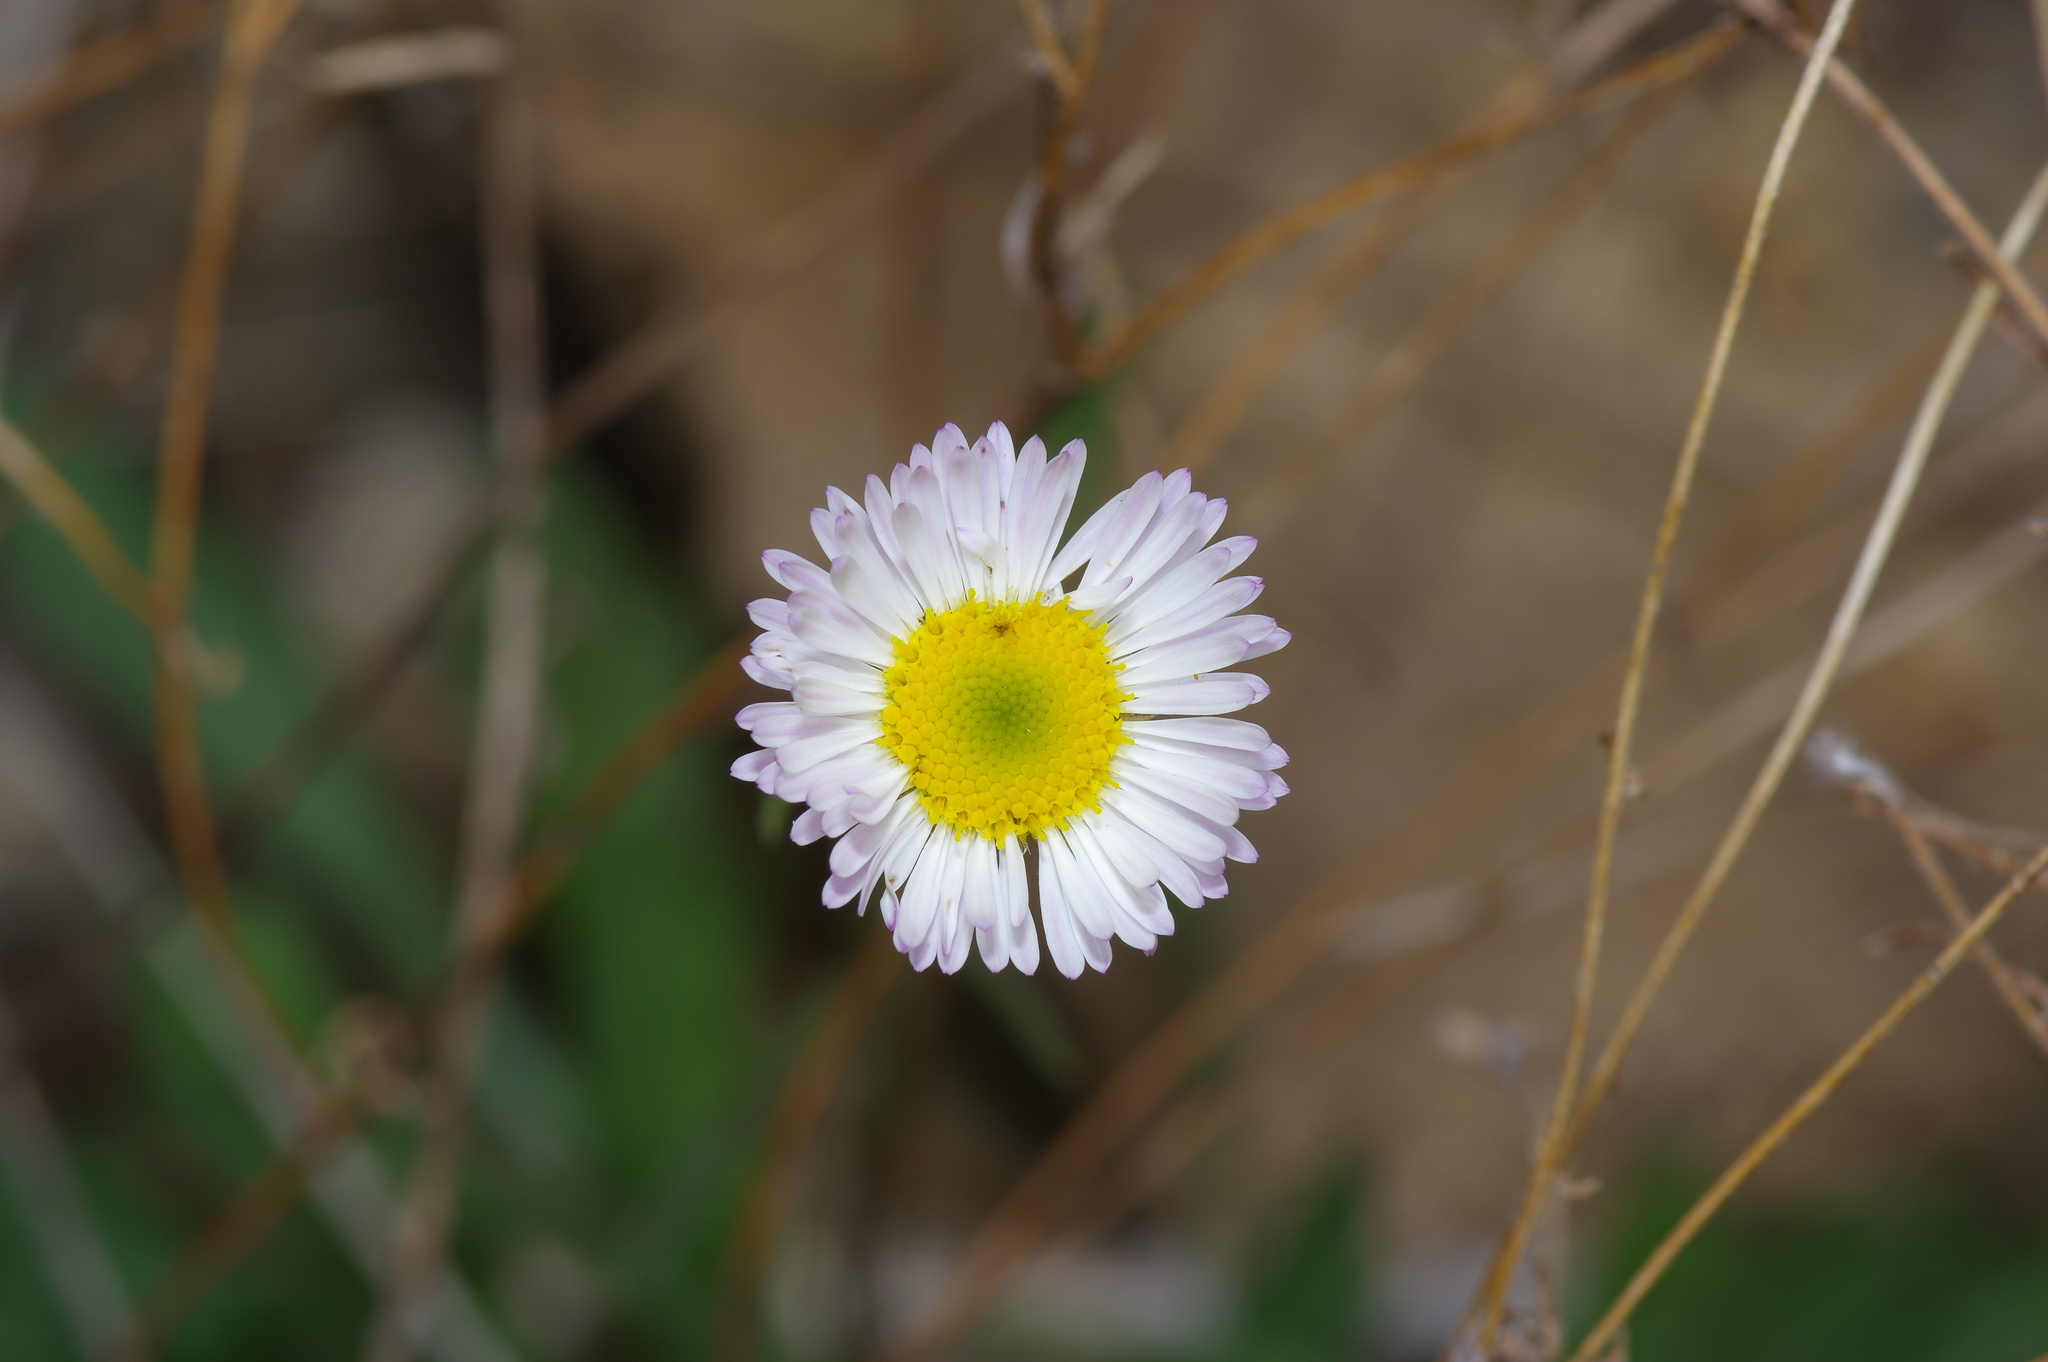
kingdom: Plantae
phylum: Tracheophyta
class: Magnoliopsida
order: Asterales
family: Asteraceae
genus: Erigeron
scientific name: Erigeron modestus
